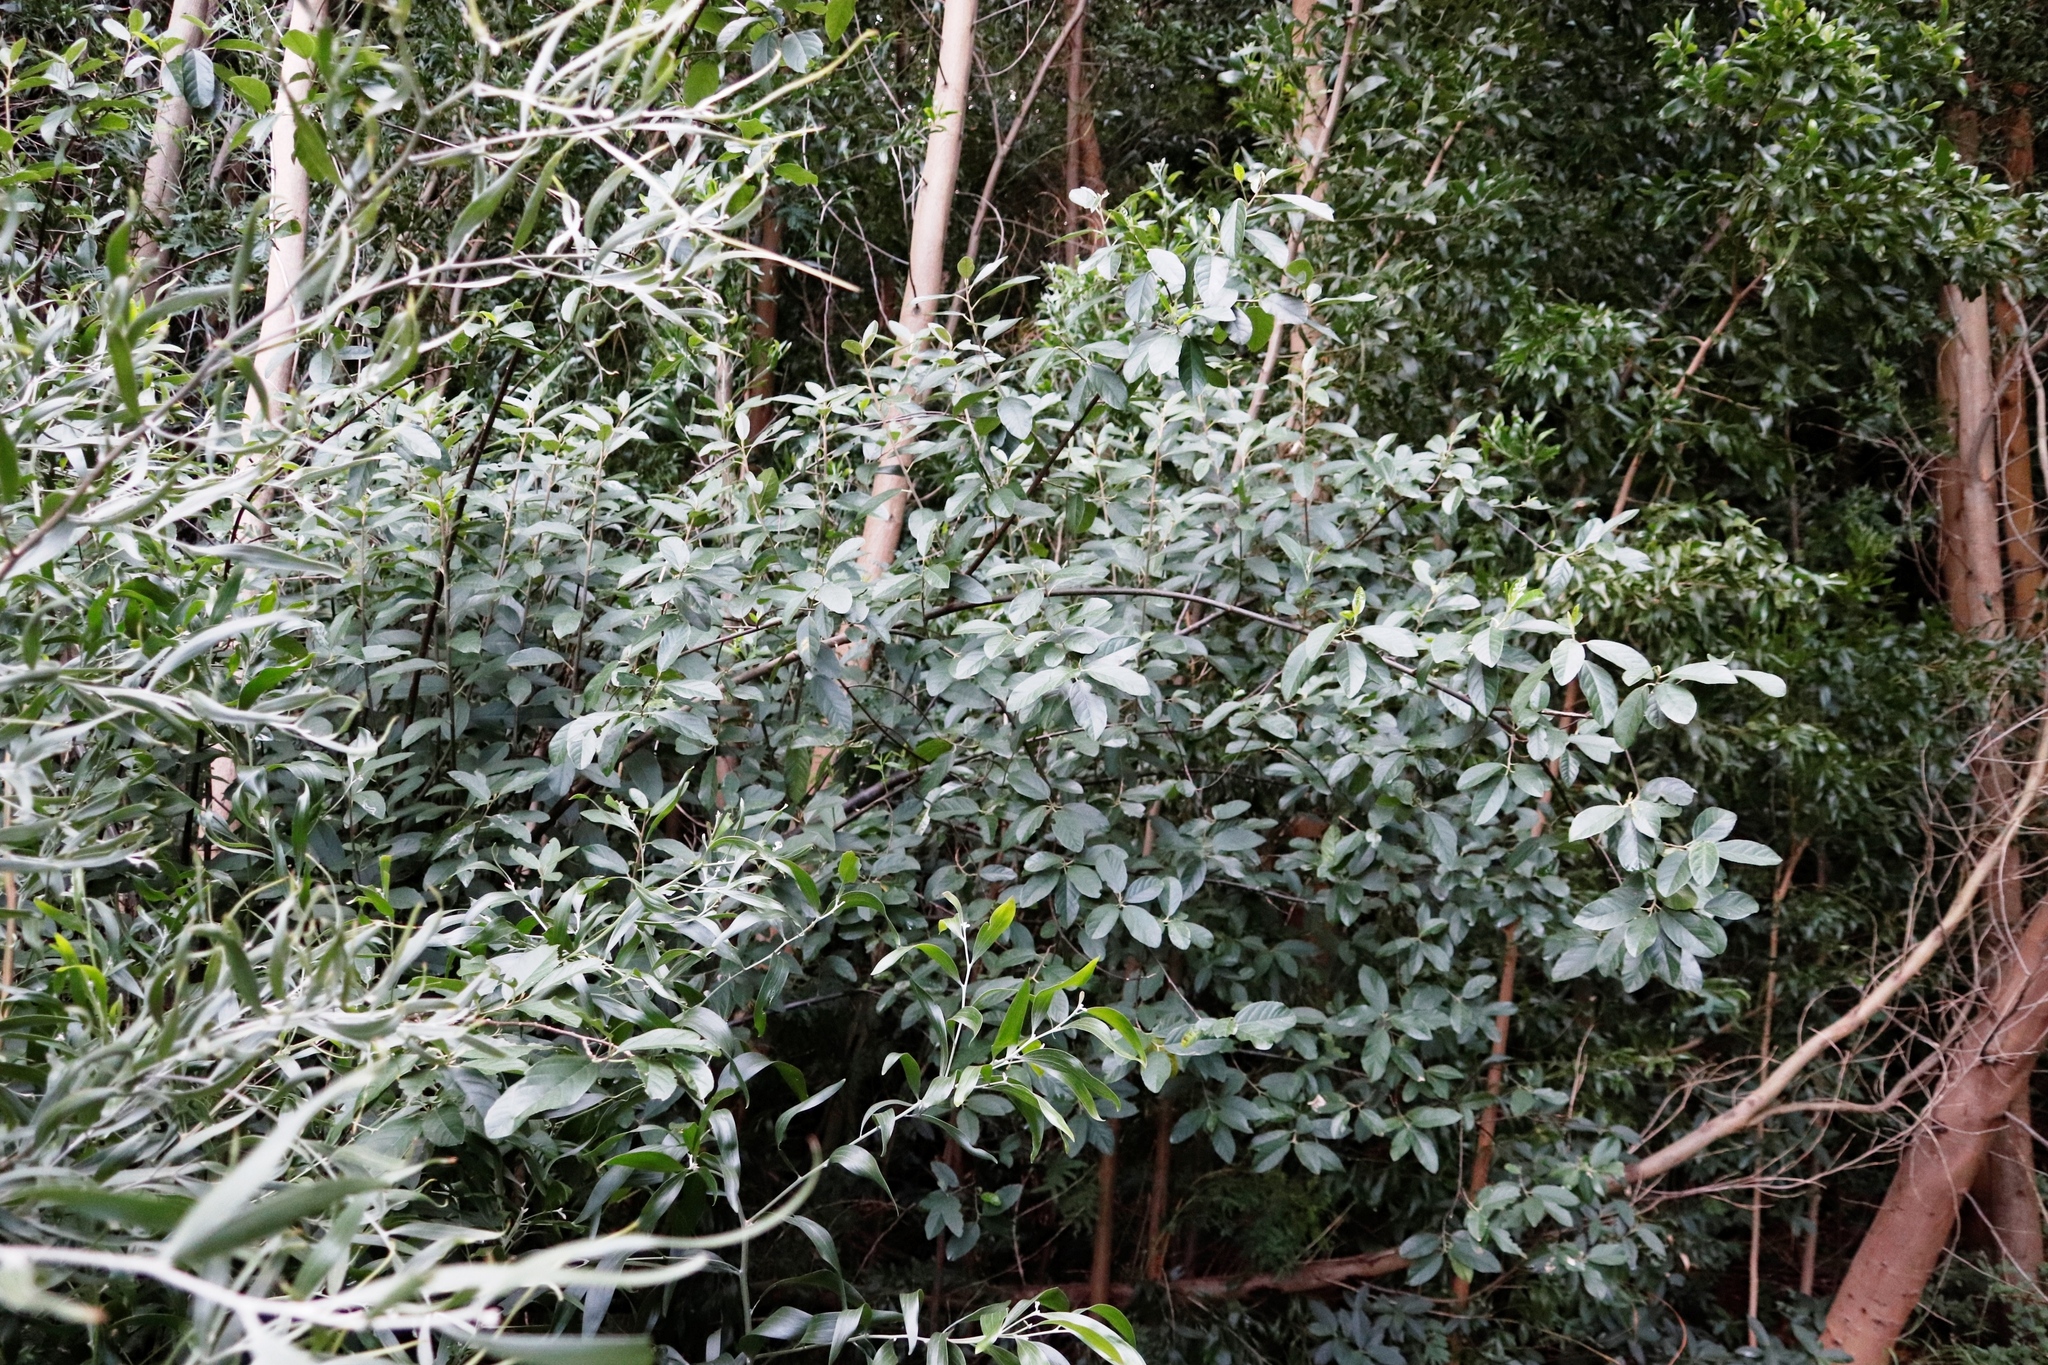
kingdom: Plantae
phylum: Tracheophyta
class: Magnoliopsida
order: Malpighiales
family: Achariaceae
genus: Kiggelaria
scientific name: Kiggelaria africana
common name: Wild peach
